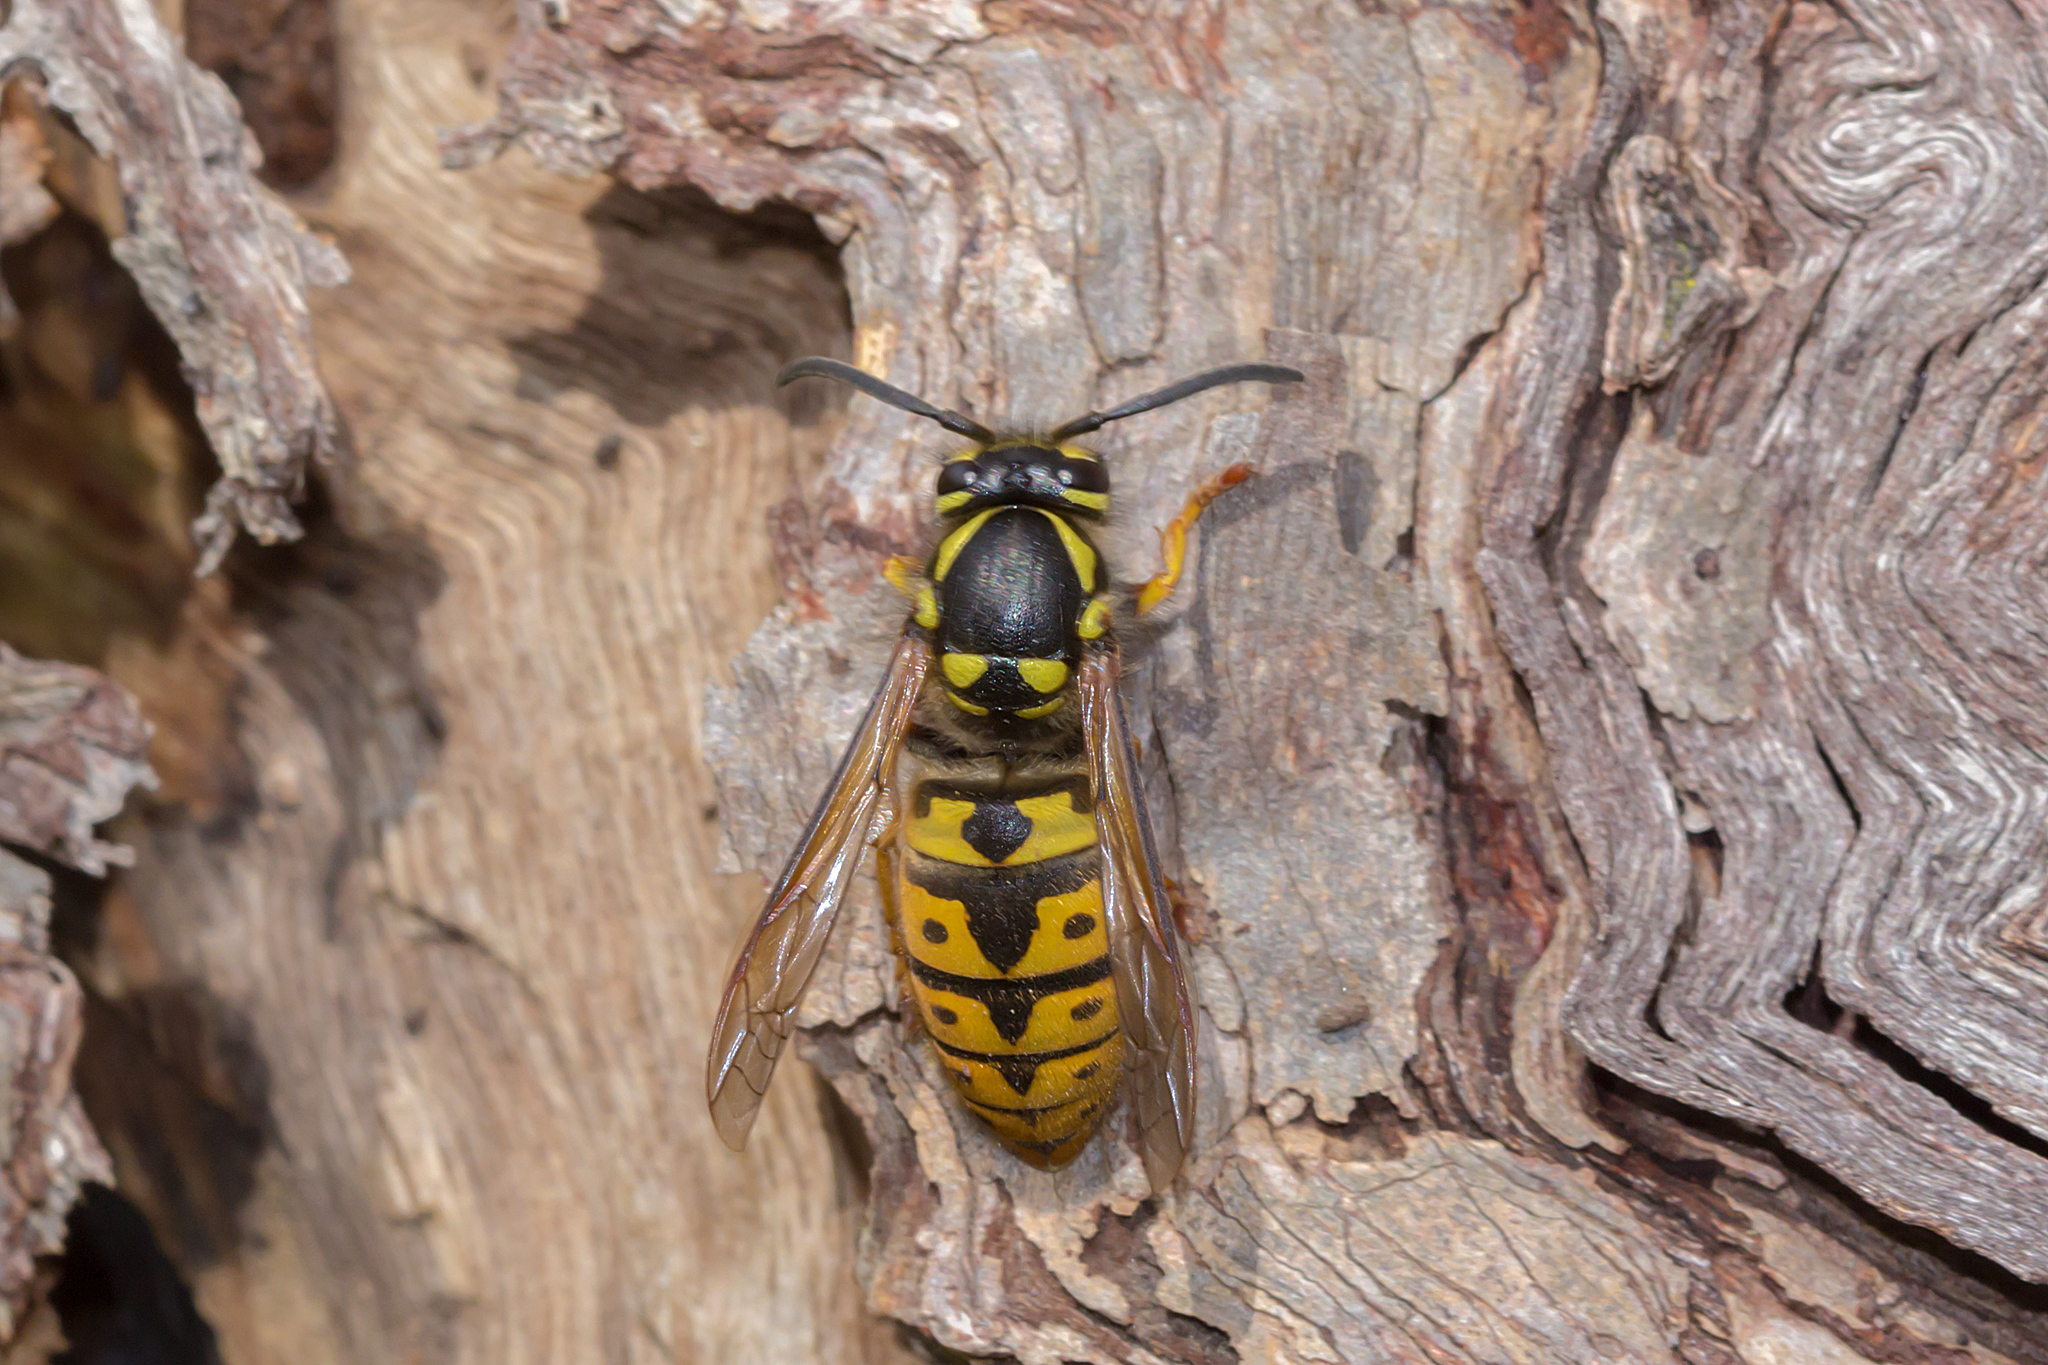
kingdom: Animalia
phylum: Arthropoda
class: Insecta
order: Hymenoptera
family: Vespidae
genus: Vespula
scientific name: Vespula germanica
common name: German wasp
